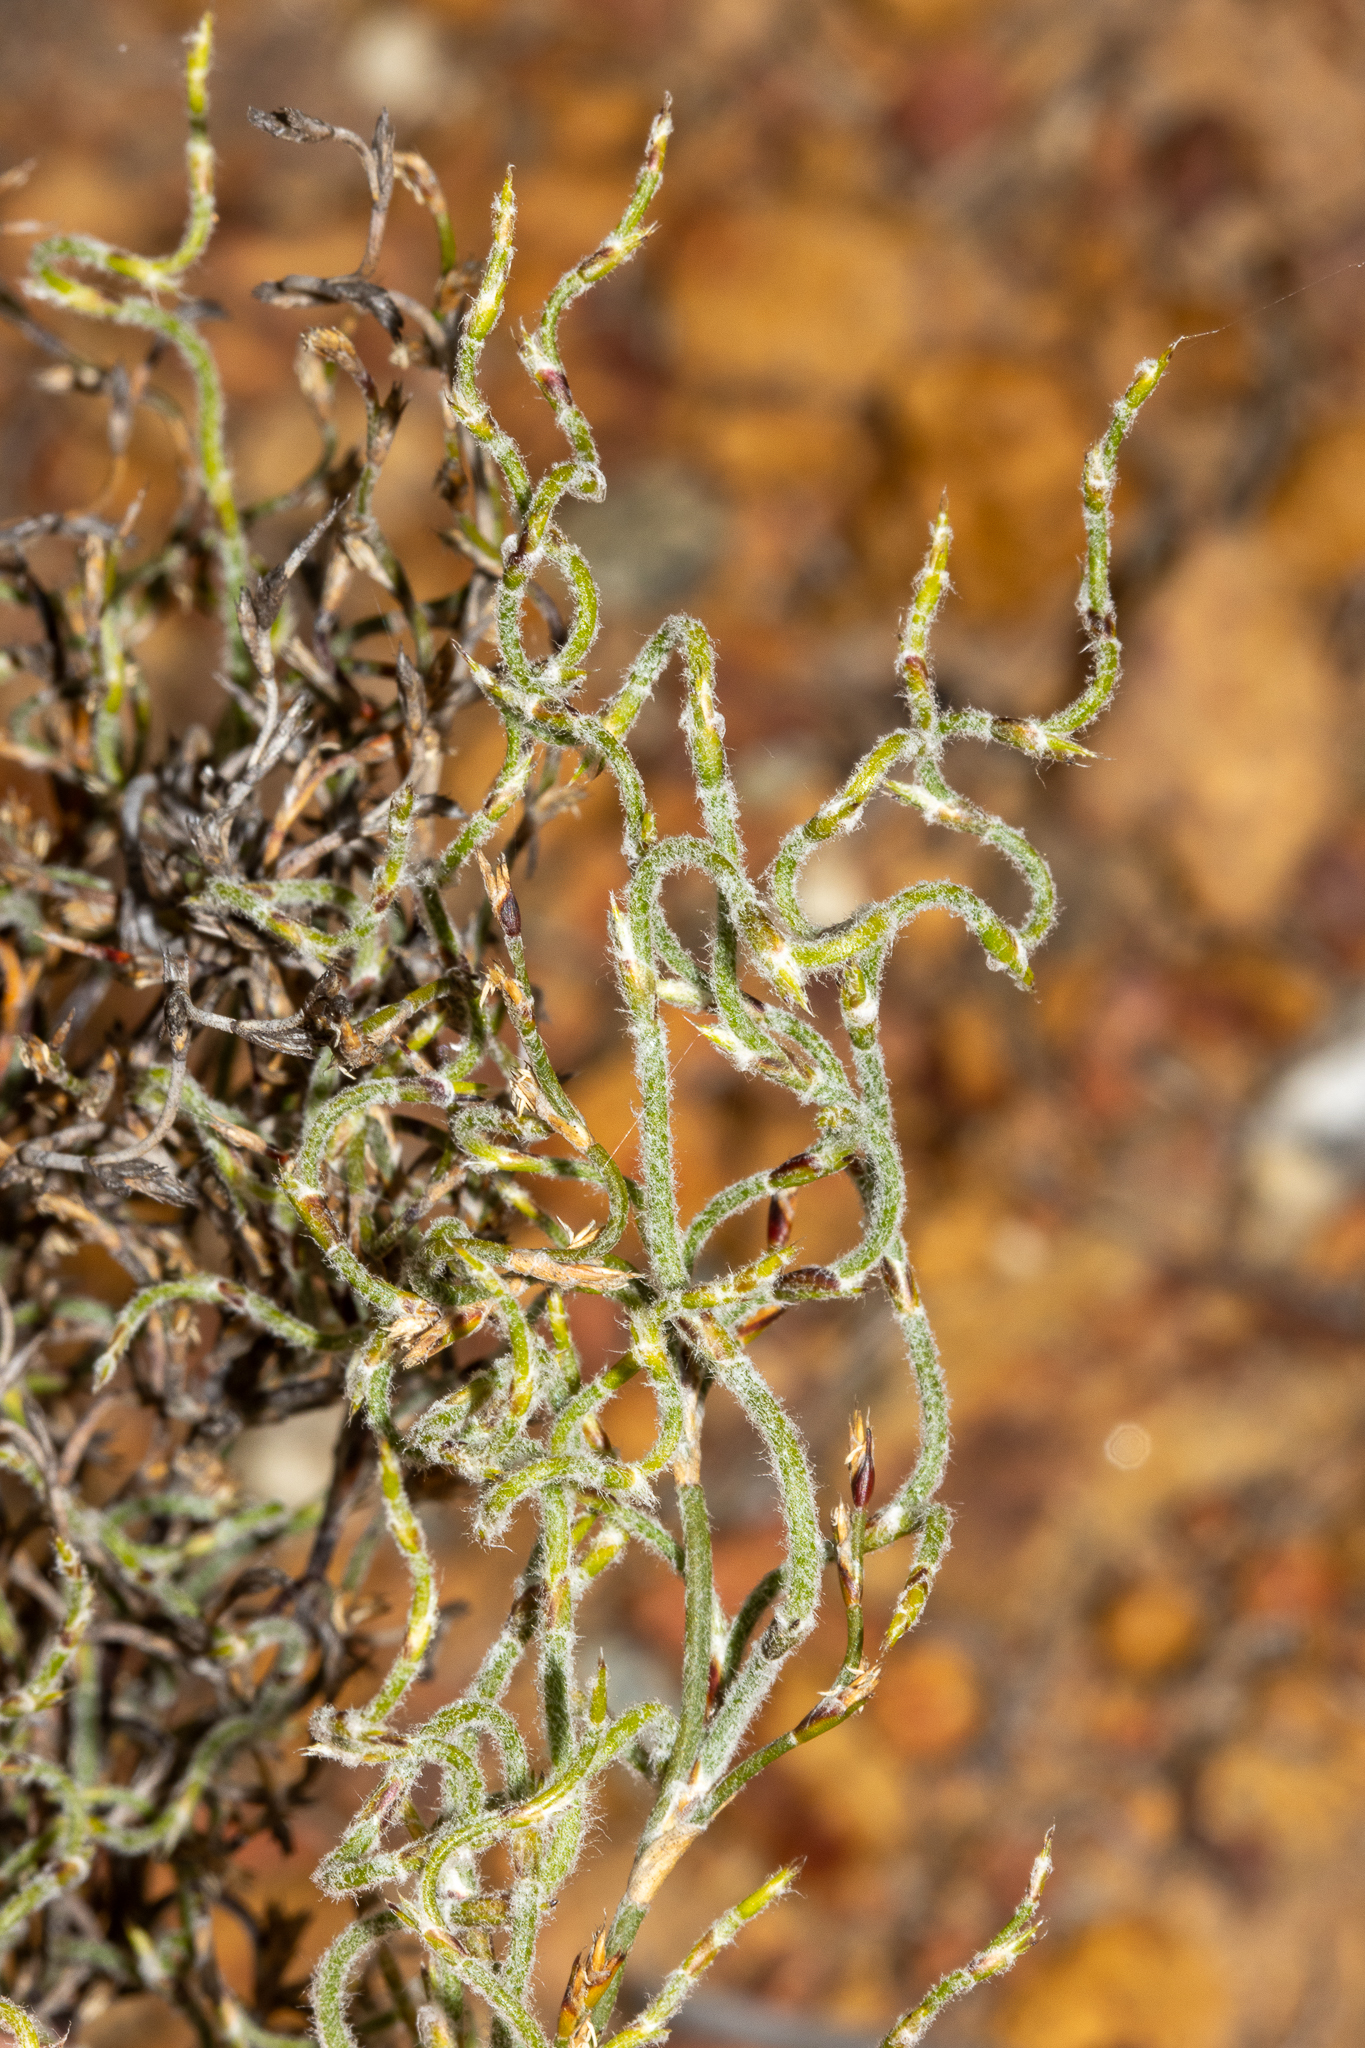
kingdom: Plantae
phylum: Tracheophyta
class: Liliopsida
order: Poales
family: Restionaceae
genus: Alexgeorgea
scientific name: Alexgeorgea nitens
